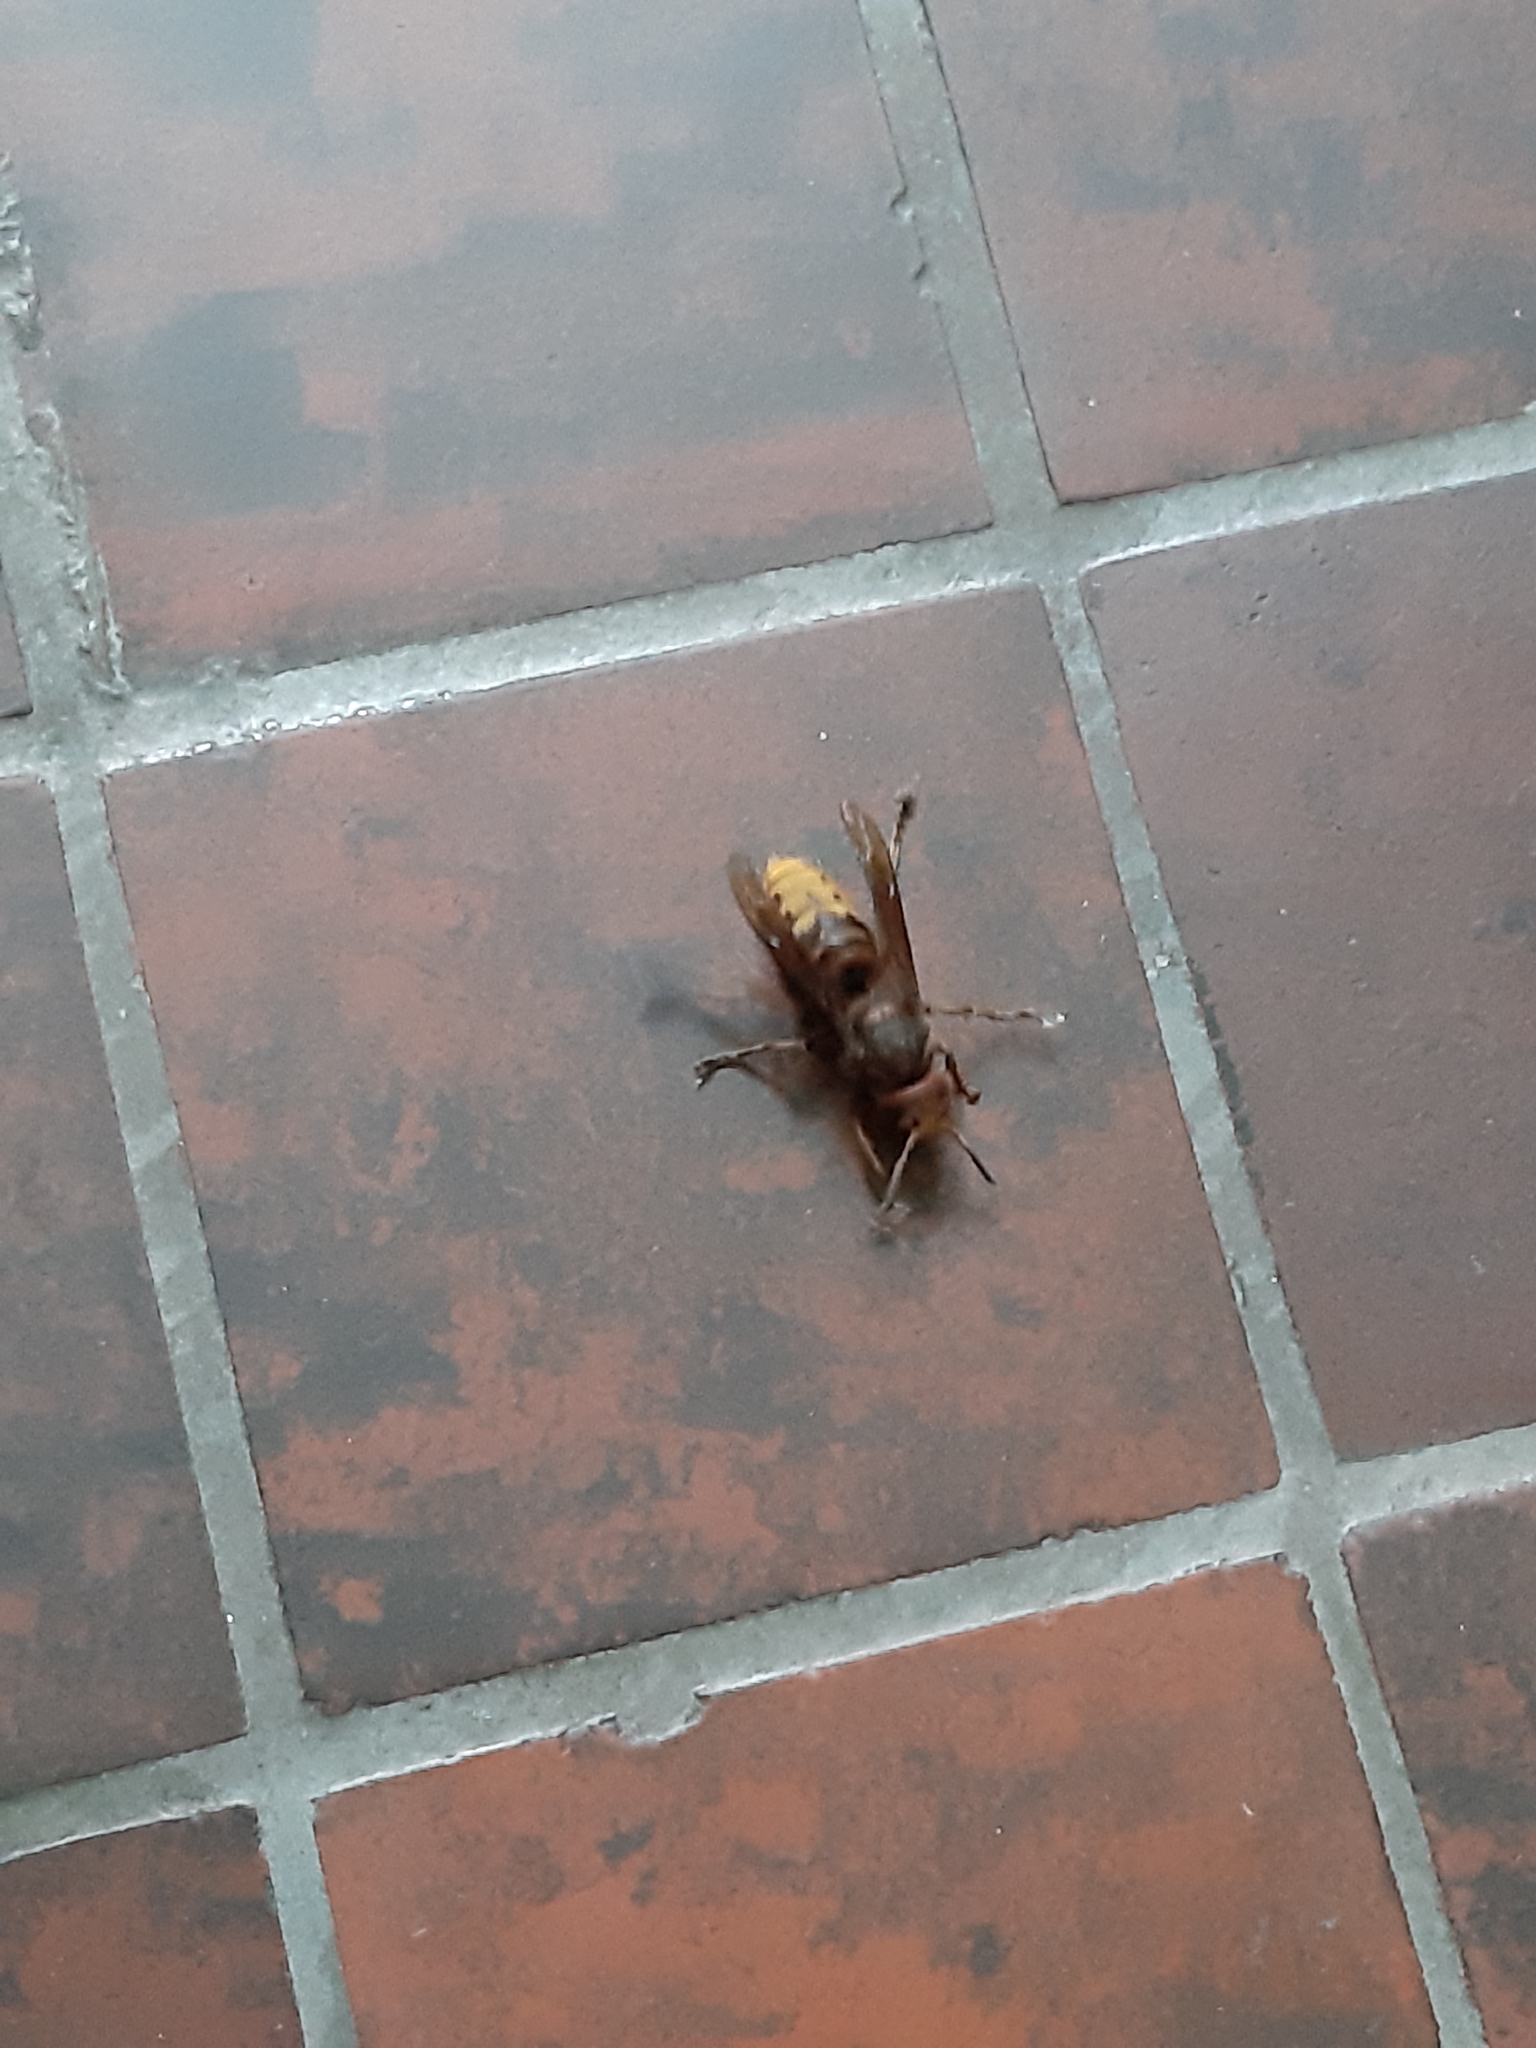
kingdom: Animalia
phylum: Arthropoda
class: Insecta
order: Hymenoptera
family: Vespidae
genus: Vespa
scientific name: Vespa crabro
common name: Hornet
